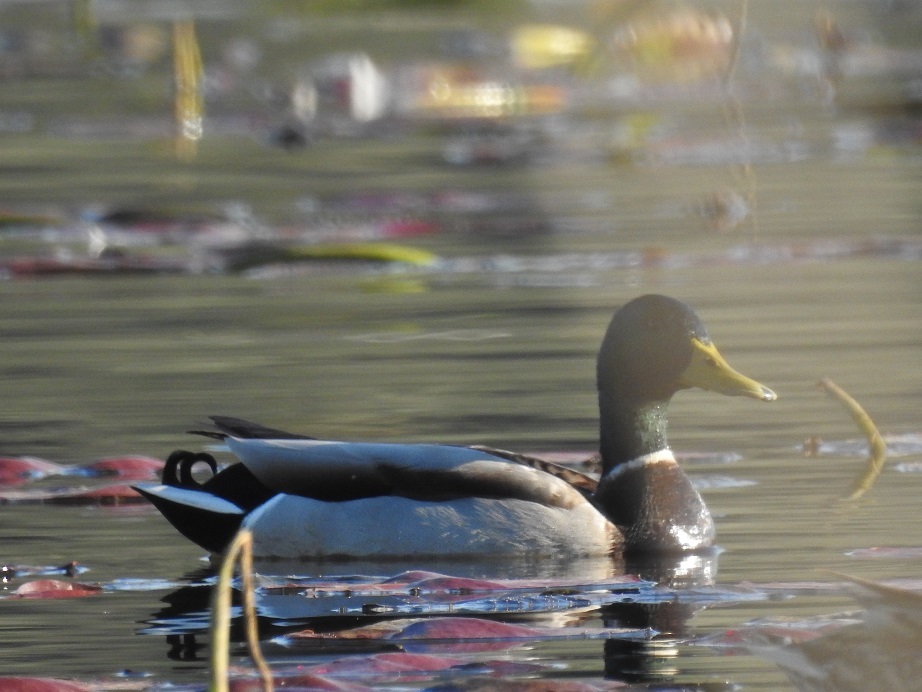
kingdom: Animalia
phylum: Chordata
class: Aves
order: Anseriformes
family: Anatidae
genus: Anas
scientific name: Anas platyrhynchos
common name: Mallard
